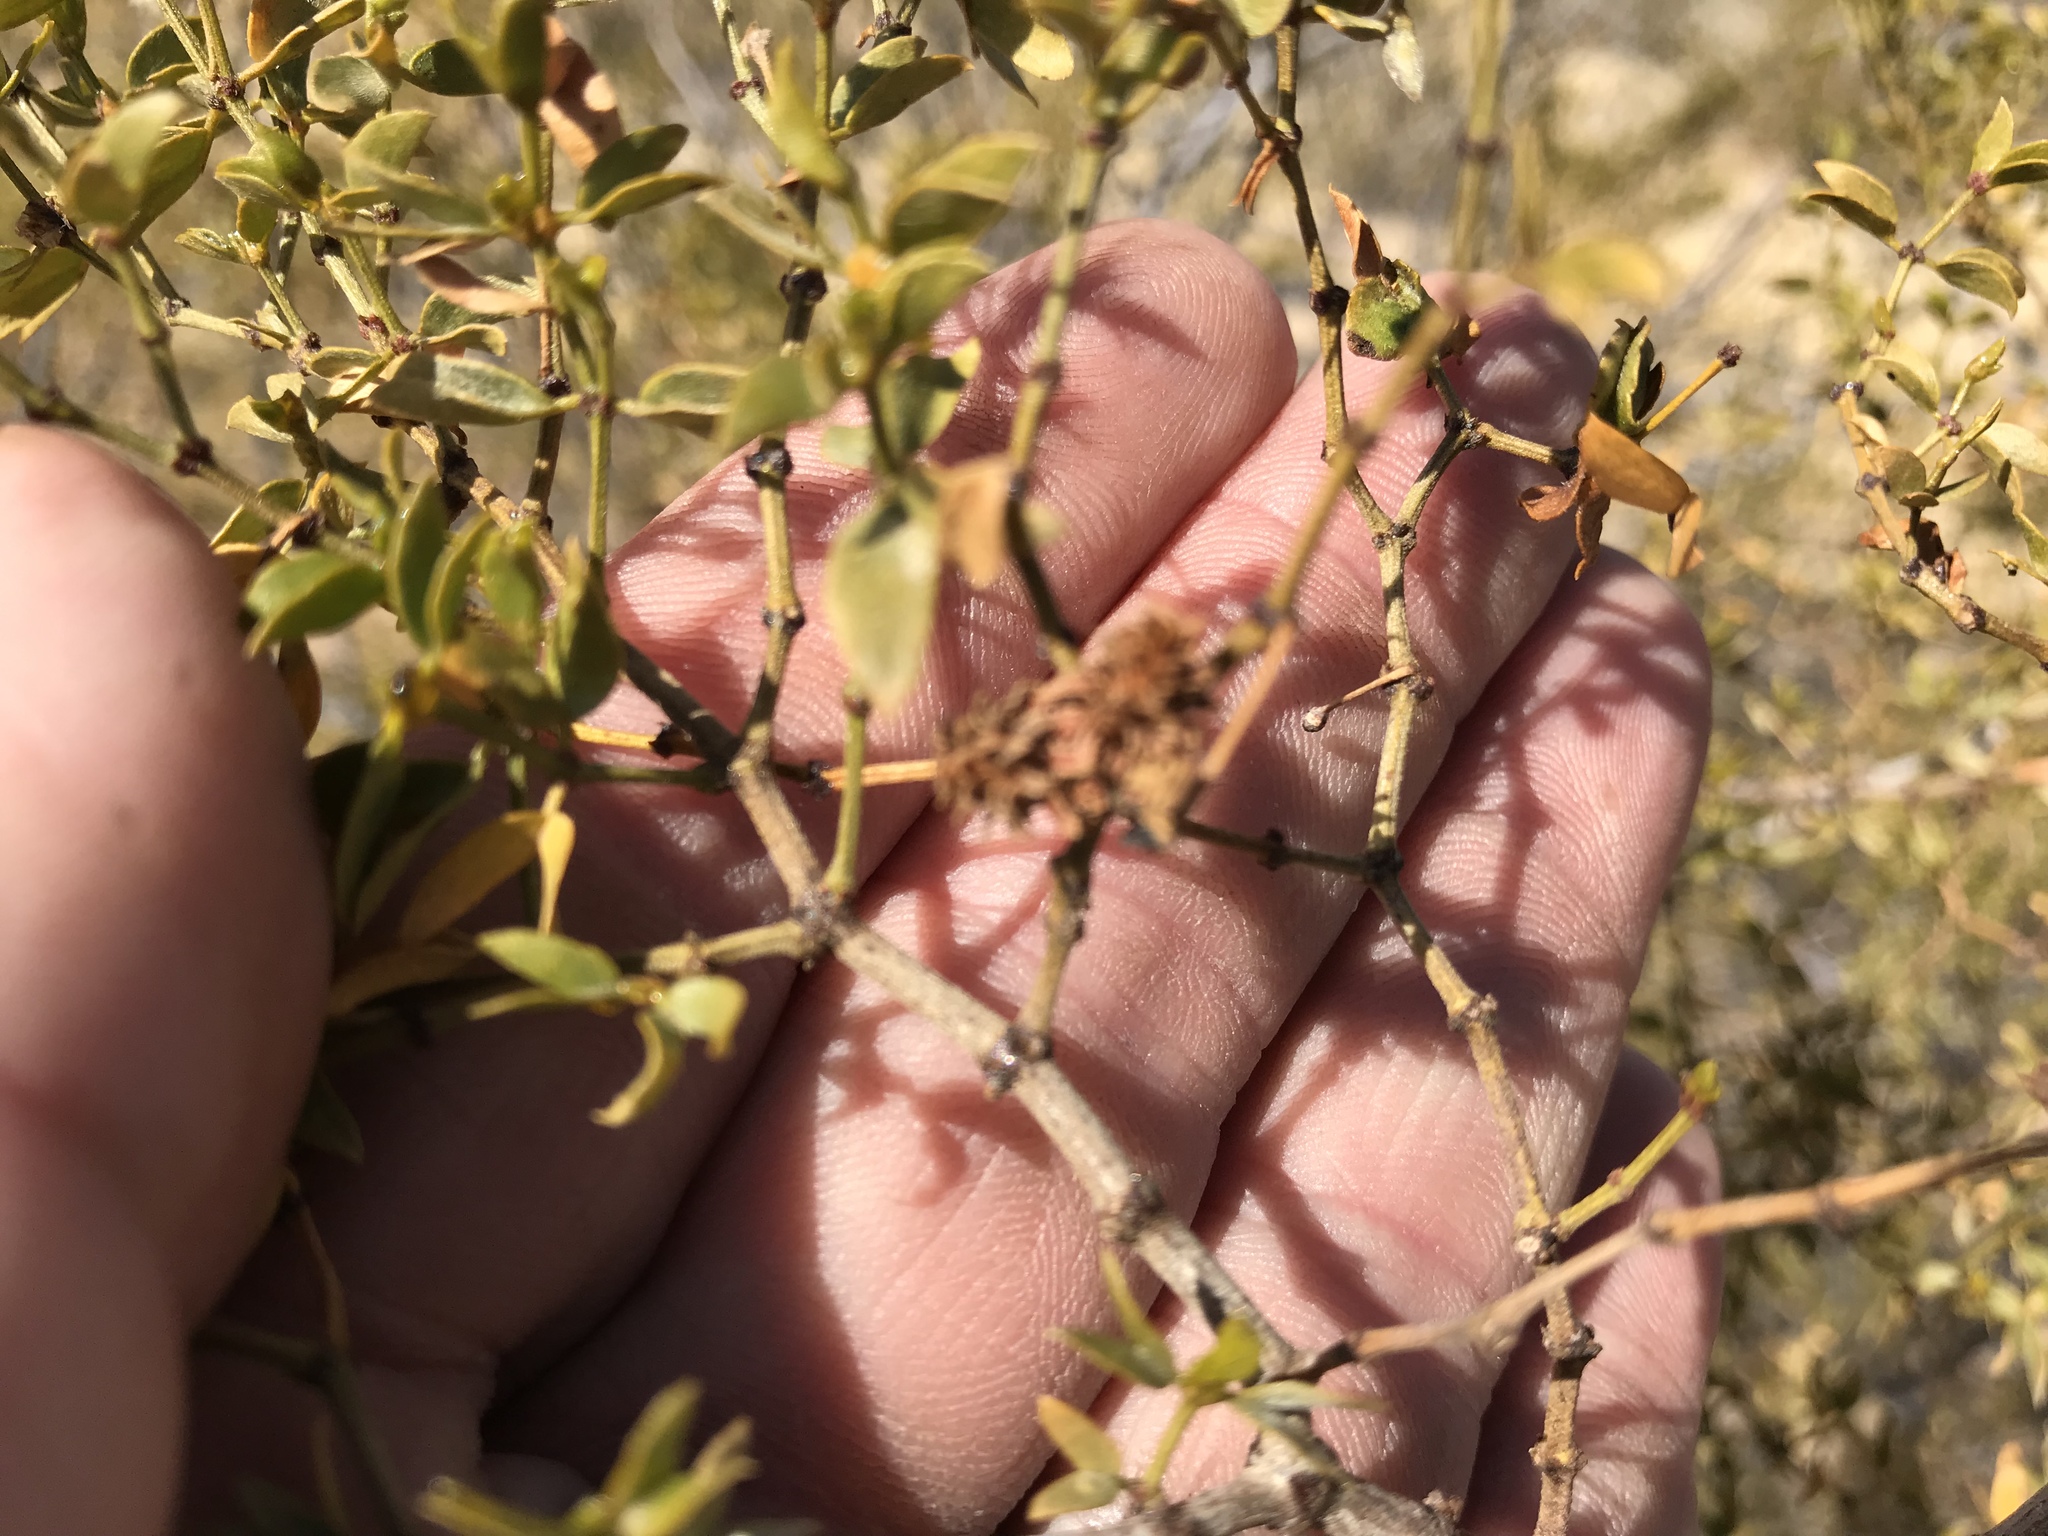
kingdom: Animalia
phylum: Arthropoda
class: Insecta
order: Diptera
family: Cecidomyiidae
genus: Asphondylia
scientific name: Asphondylia rosetta
